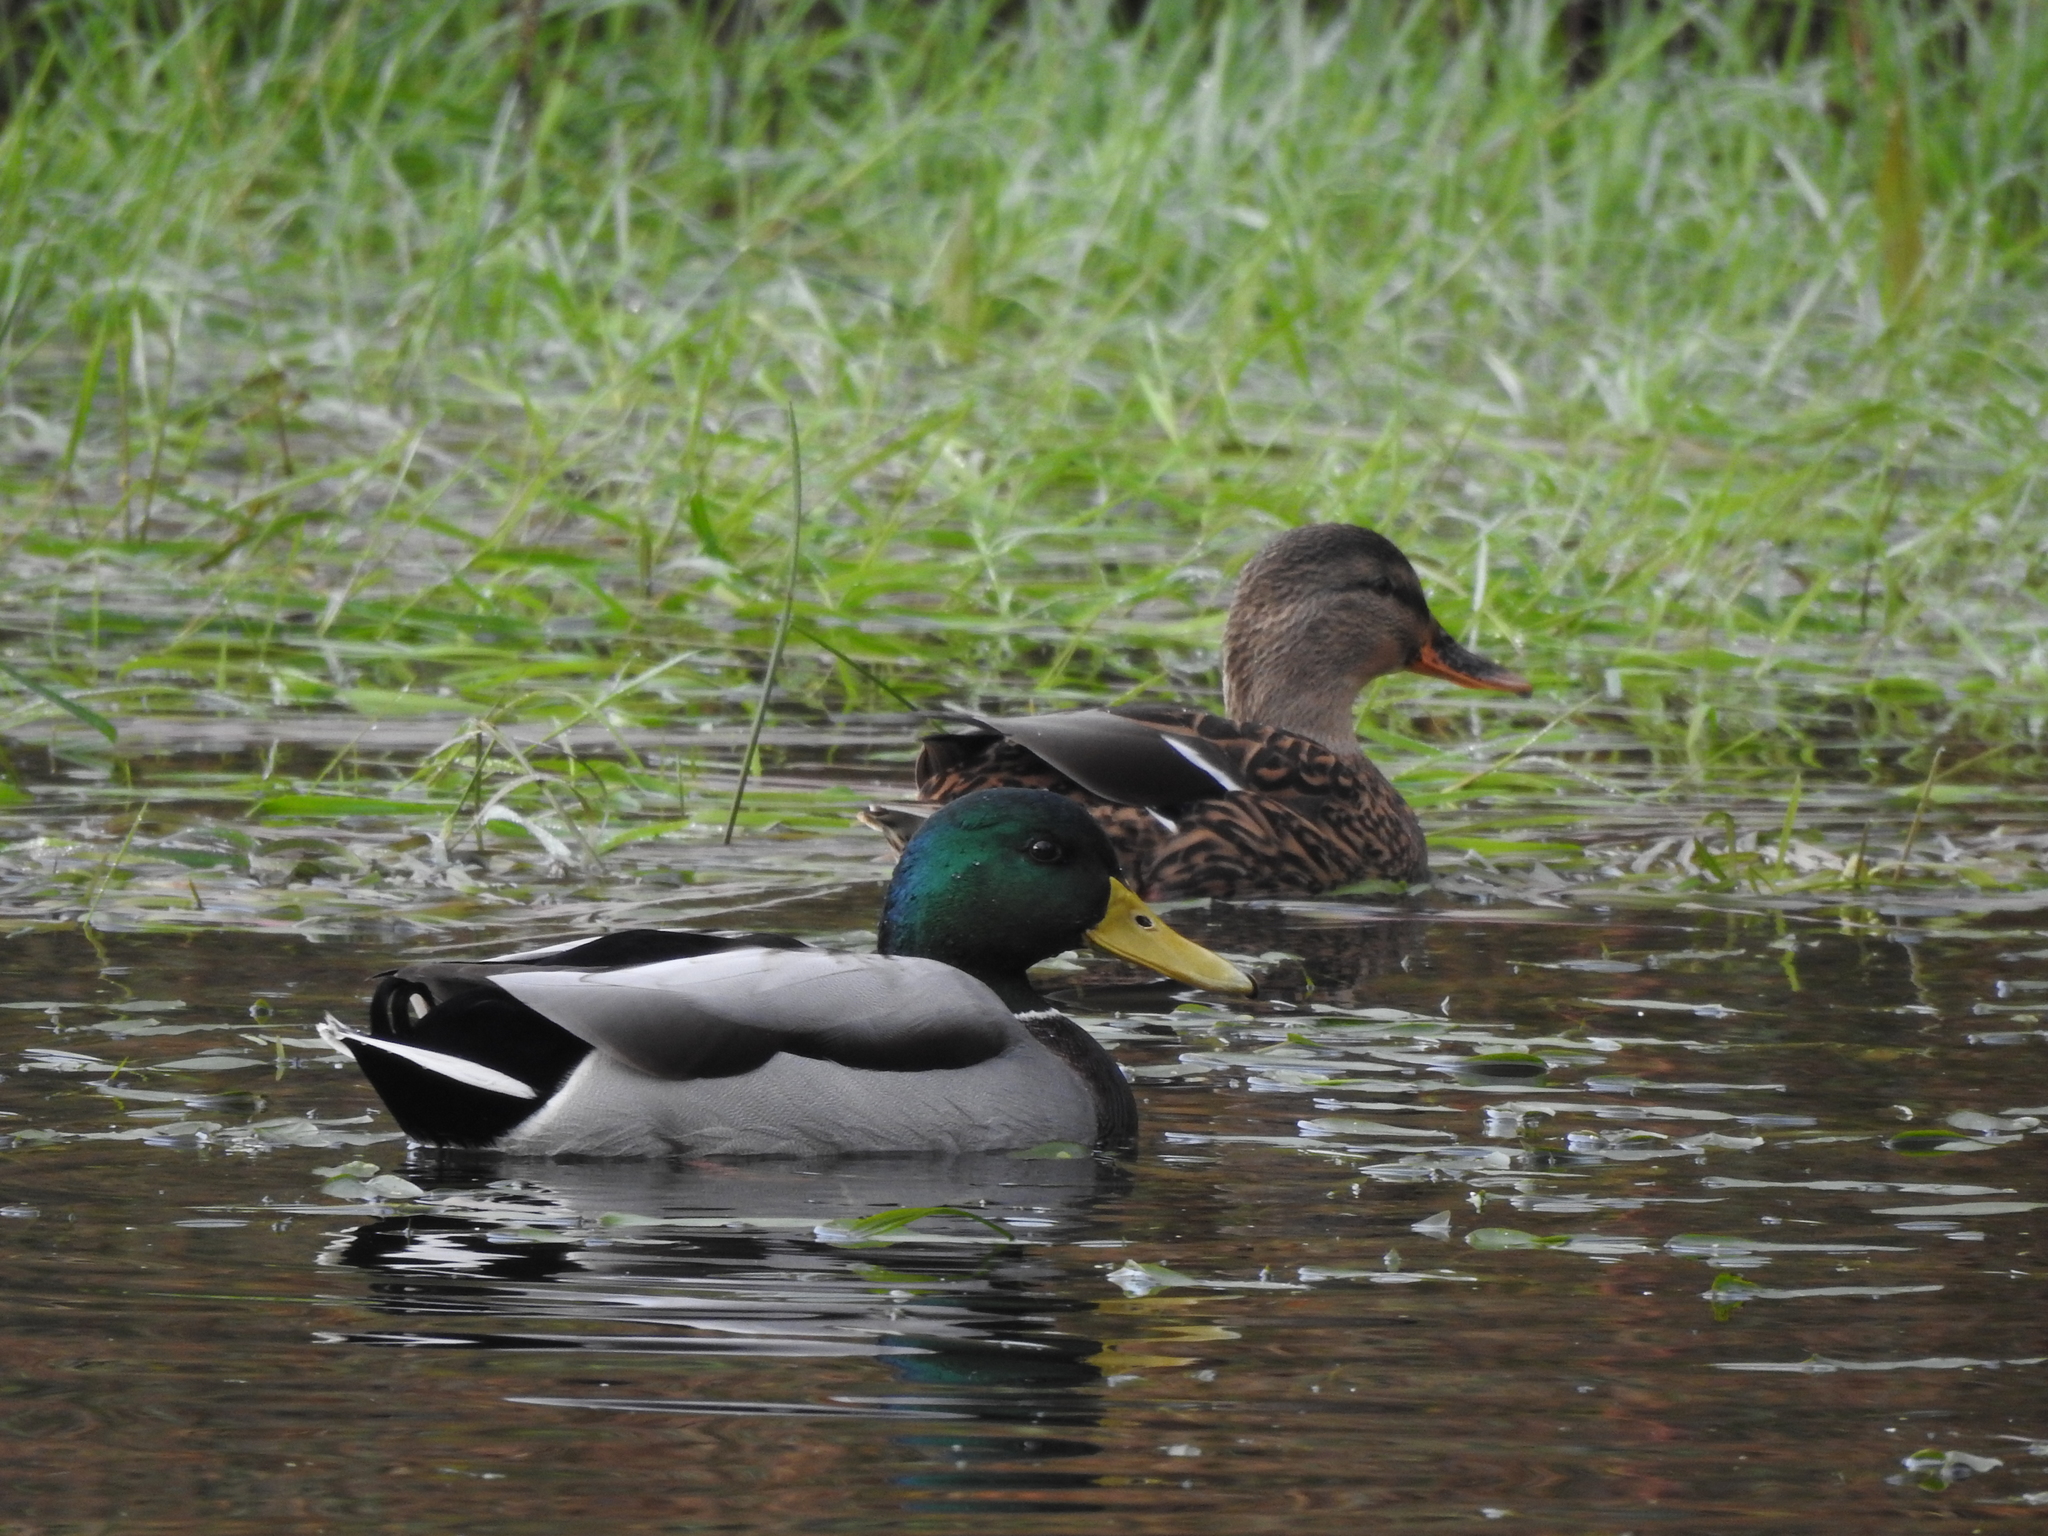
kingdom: Animalia
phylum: Chordata
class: Aves
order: Anseriformes
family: Anatidae
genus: Anas
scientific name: Anas platyrhynchos
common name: Mallard
